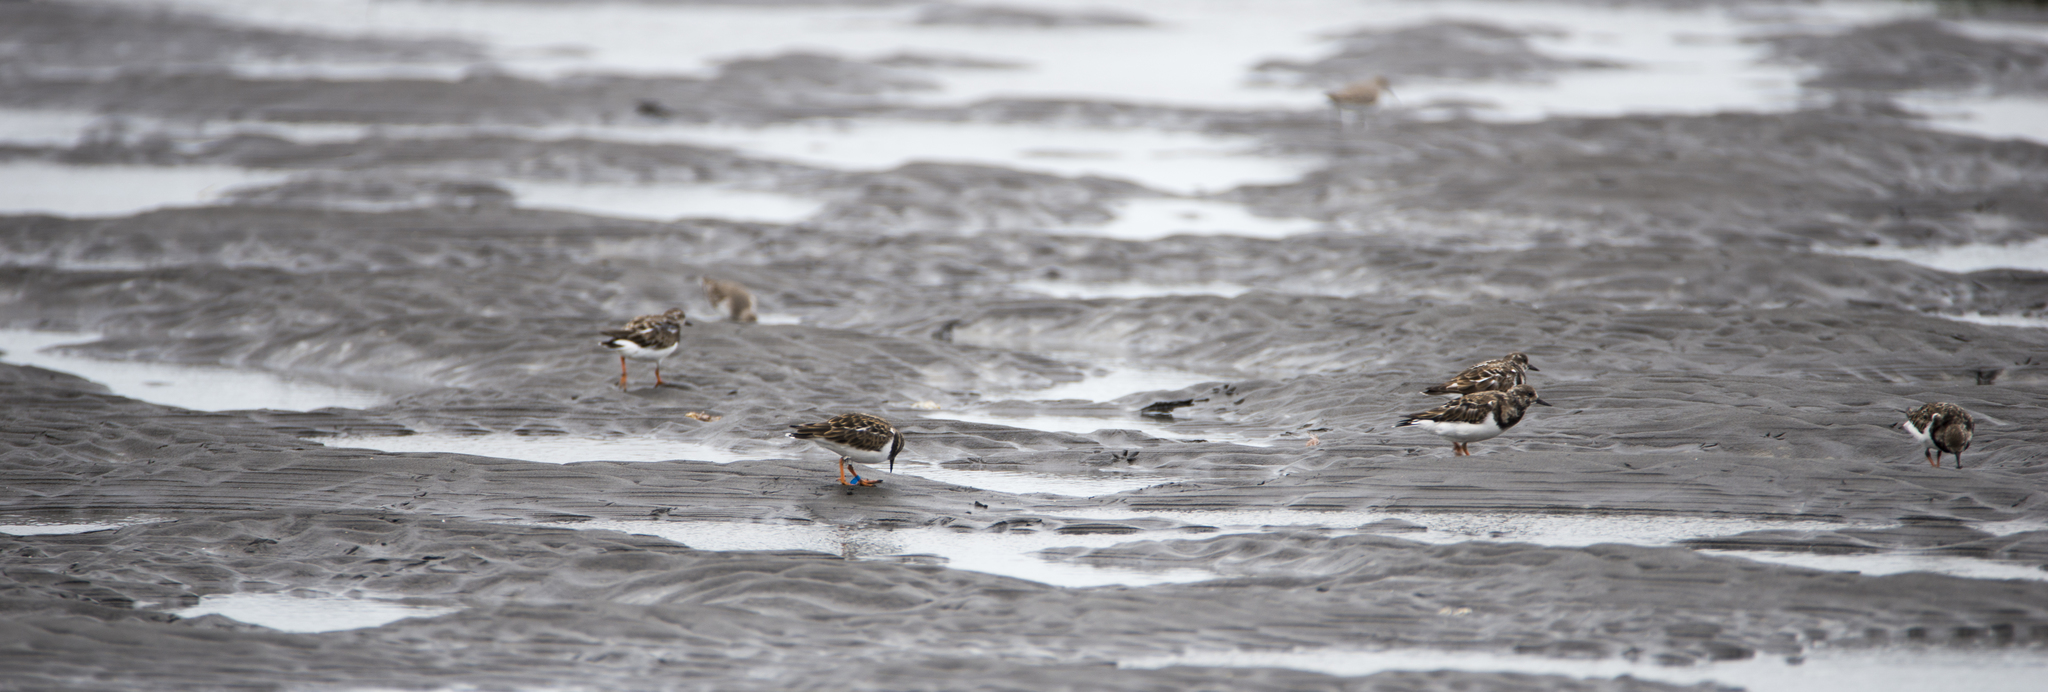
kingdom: Animalia
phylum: Chordata
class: Aves
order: Charadriiformes
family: Scolopacidae
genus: Arenaria
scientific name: Arenaria interpres
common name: Ruddy turnstone
